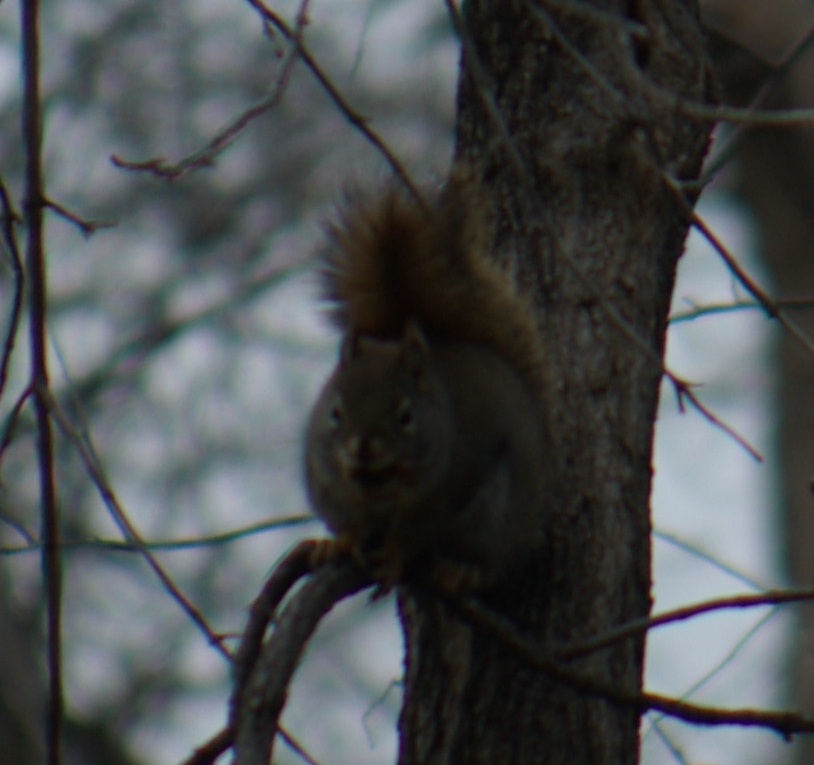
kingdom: Animalia
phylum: Chordata
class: Mammalia
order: Rodentia
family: Sciuridae
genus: Tamiasciurus
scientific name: Tamiasciurus hudsonicus
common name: Red squirrel
